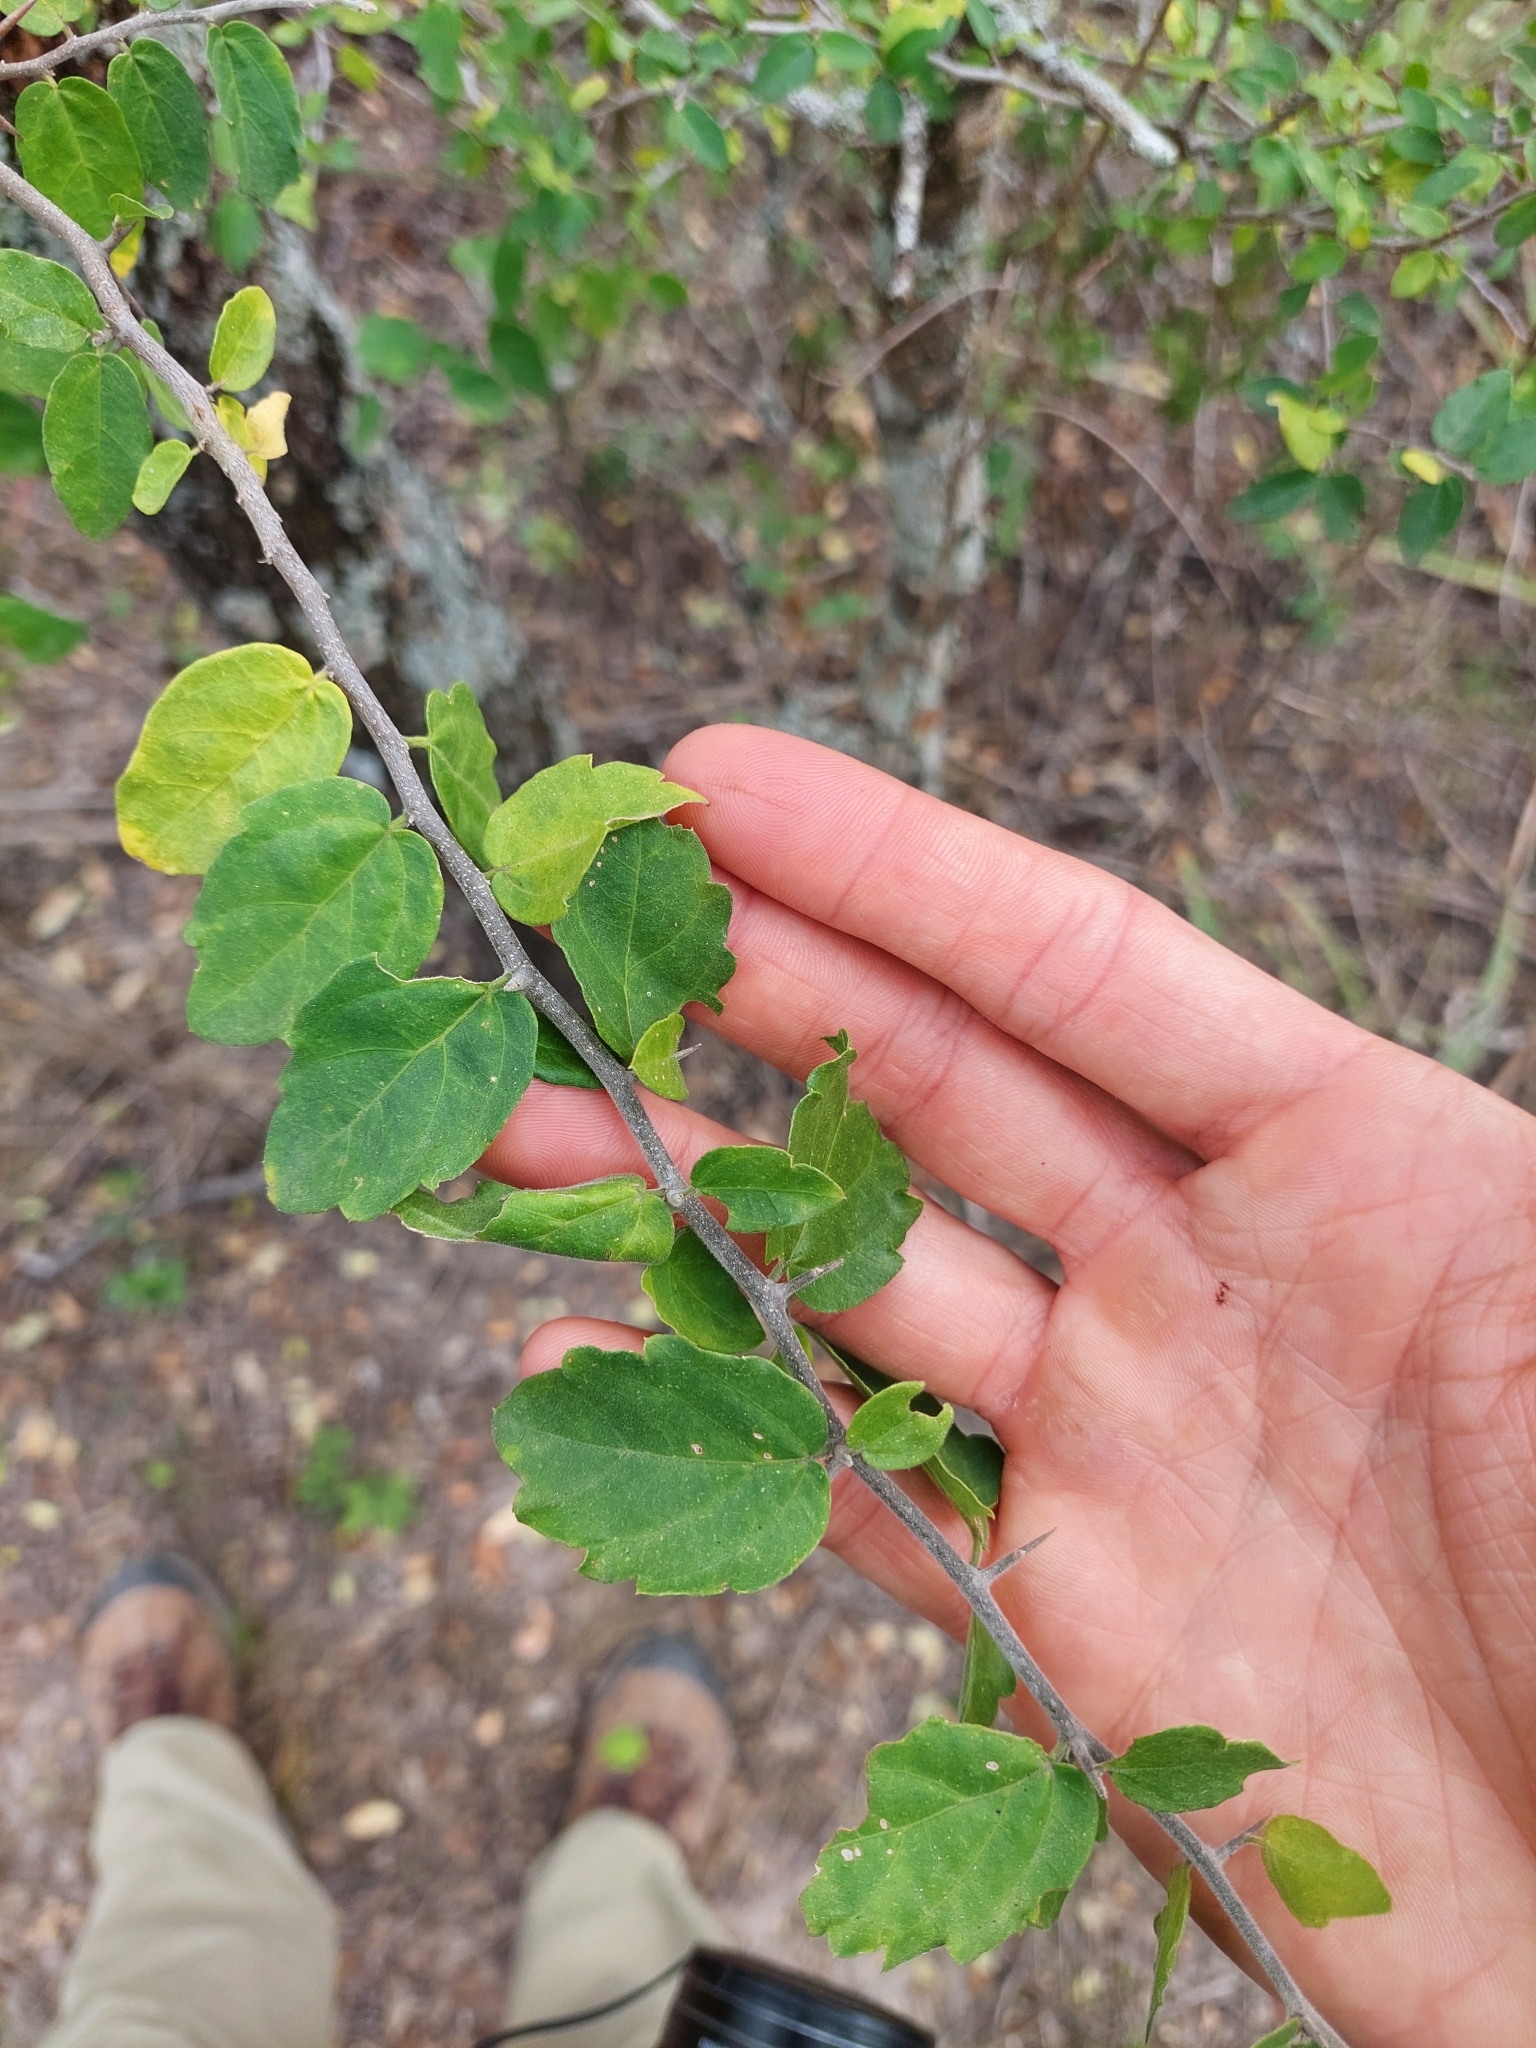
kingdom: Plantae
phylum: Tracheophyta
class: Magnoliopsida
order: Rosales
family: Cannabaceae
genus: Celtis
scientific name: Celtis pallida
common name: Desert hackberry
